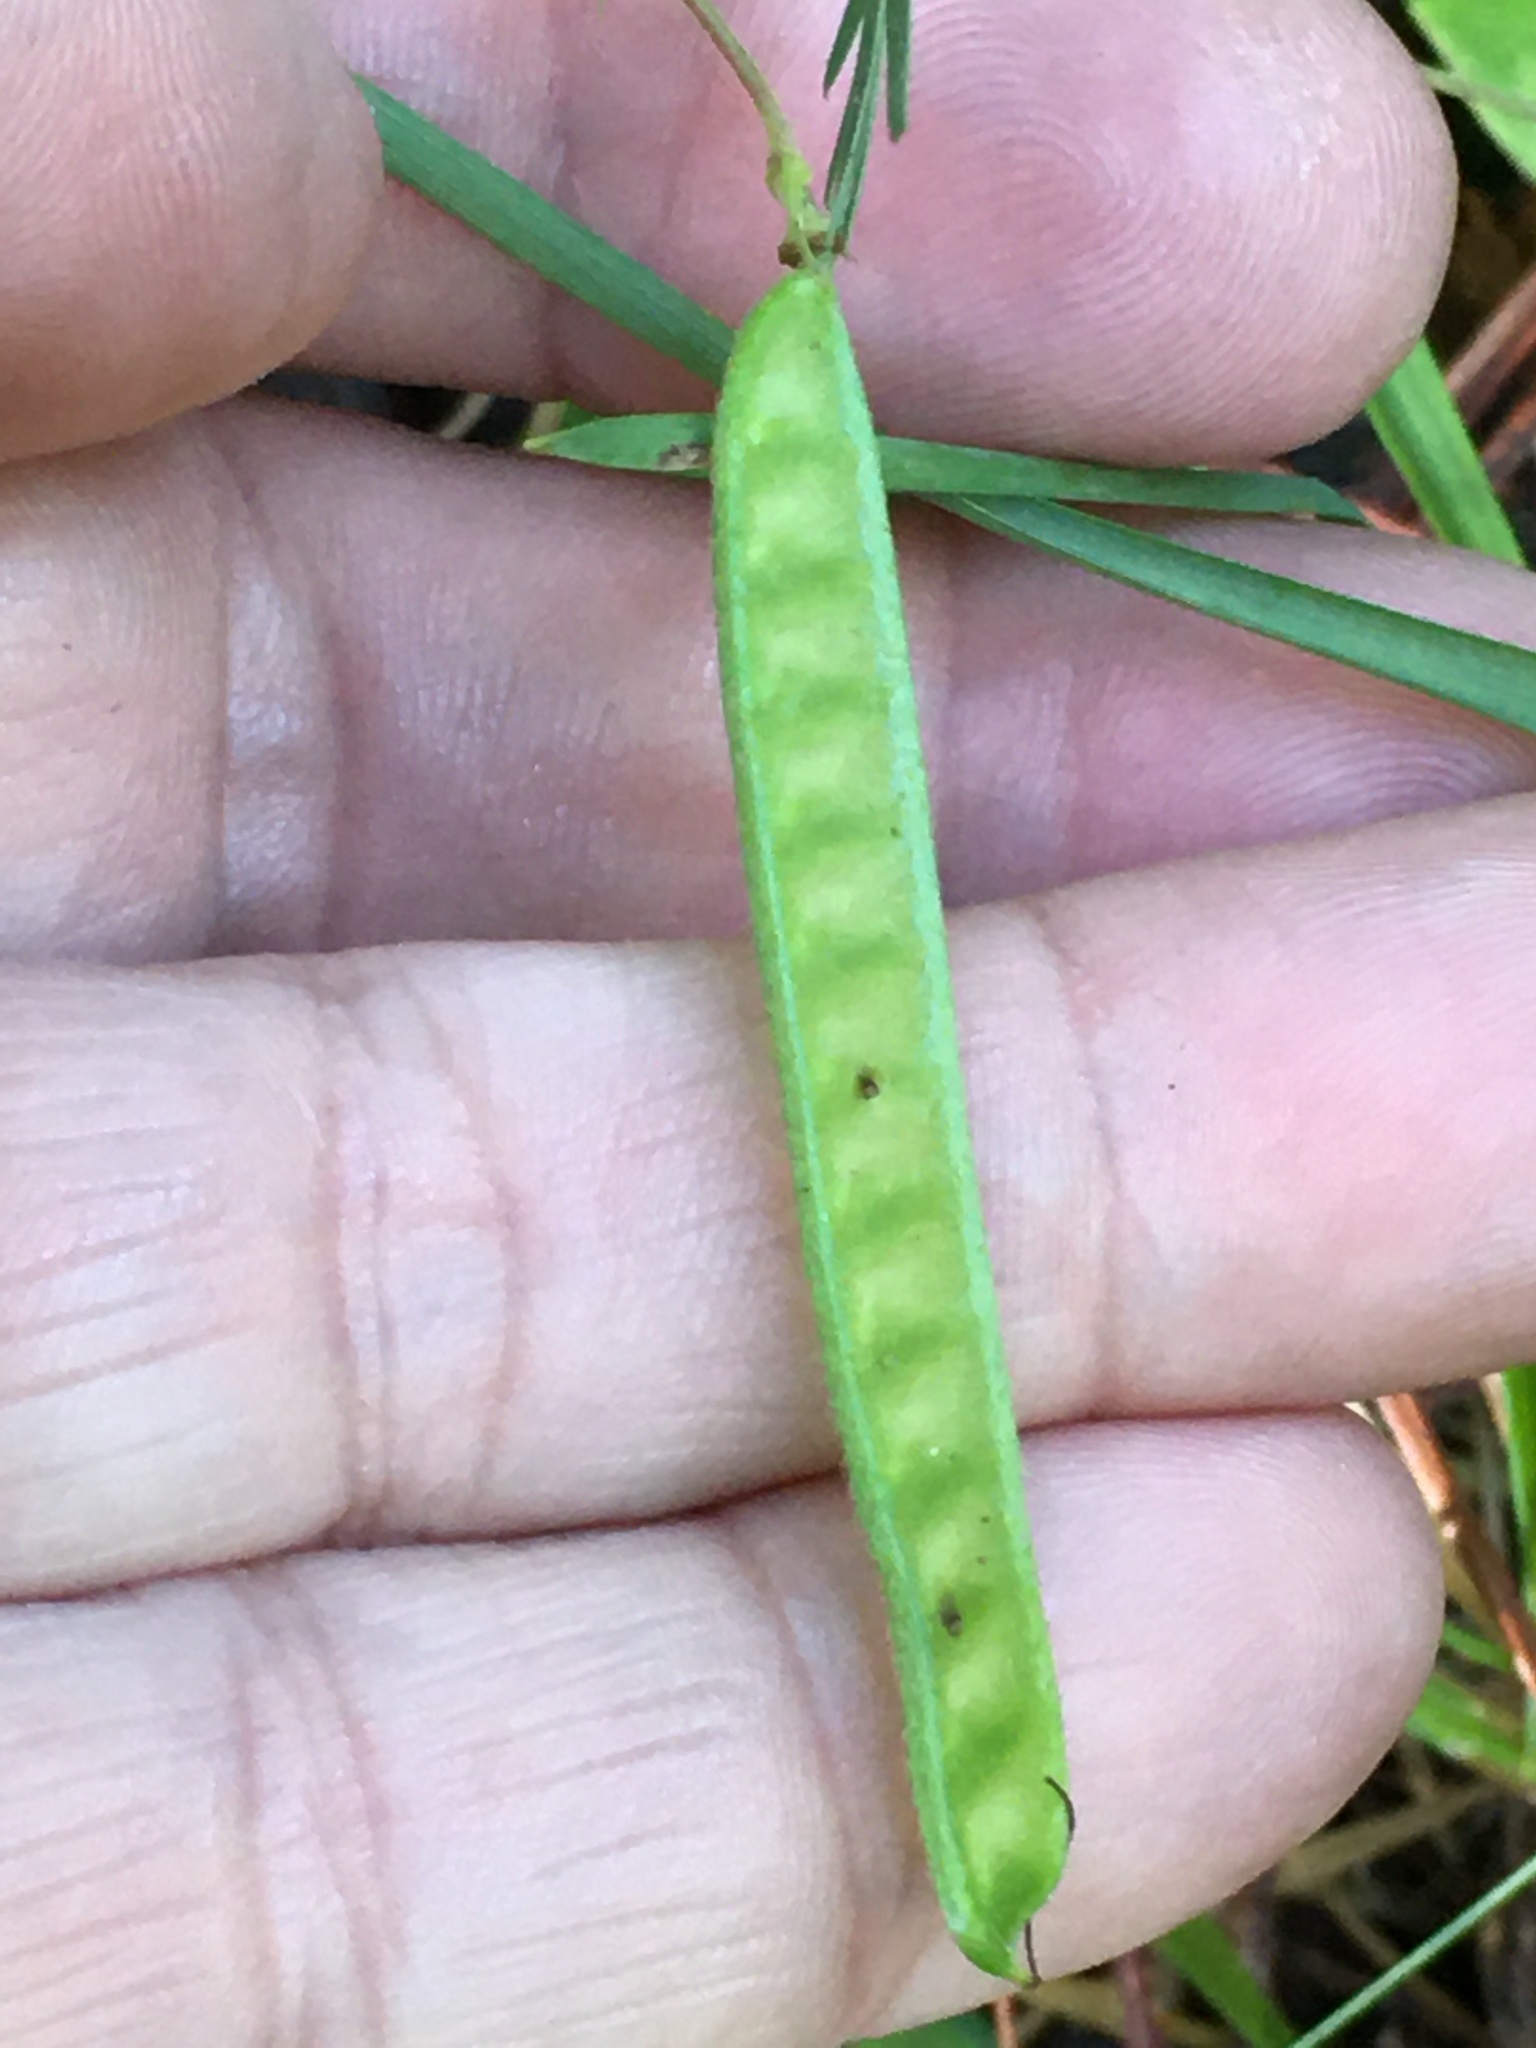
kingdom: Plantae
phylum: Tracheophyta
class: Magnoliopsida
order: Fabales
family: Fabaceae
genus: Chamaecrista
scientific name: Chamaecrista fasciculata
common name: Golden cassia
